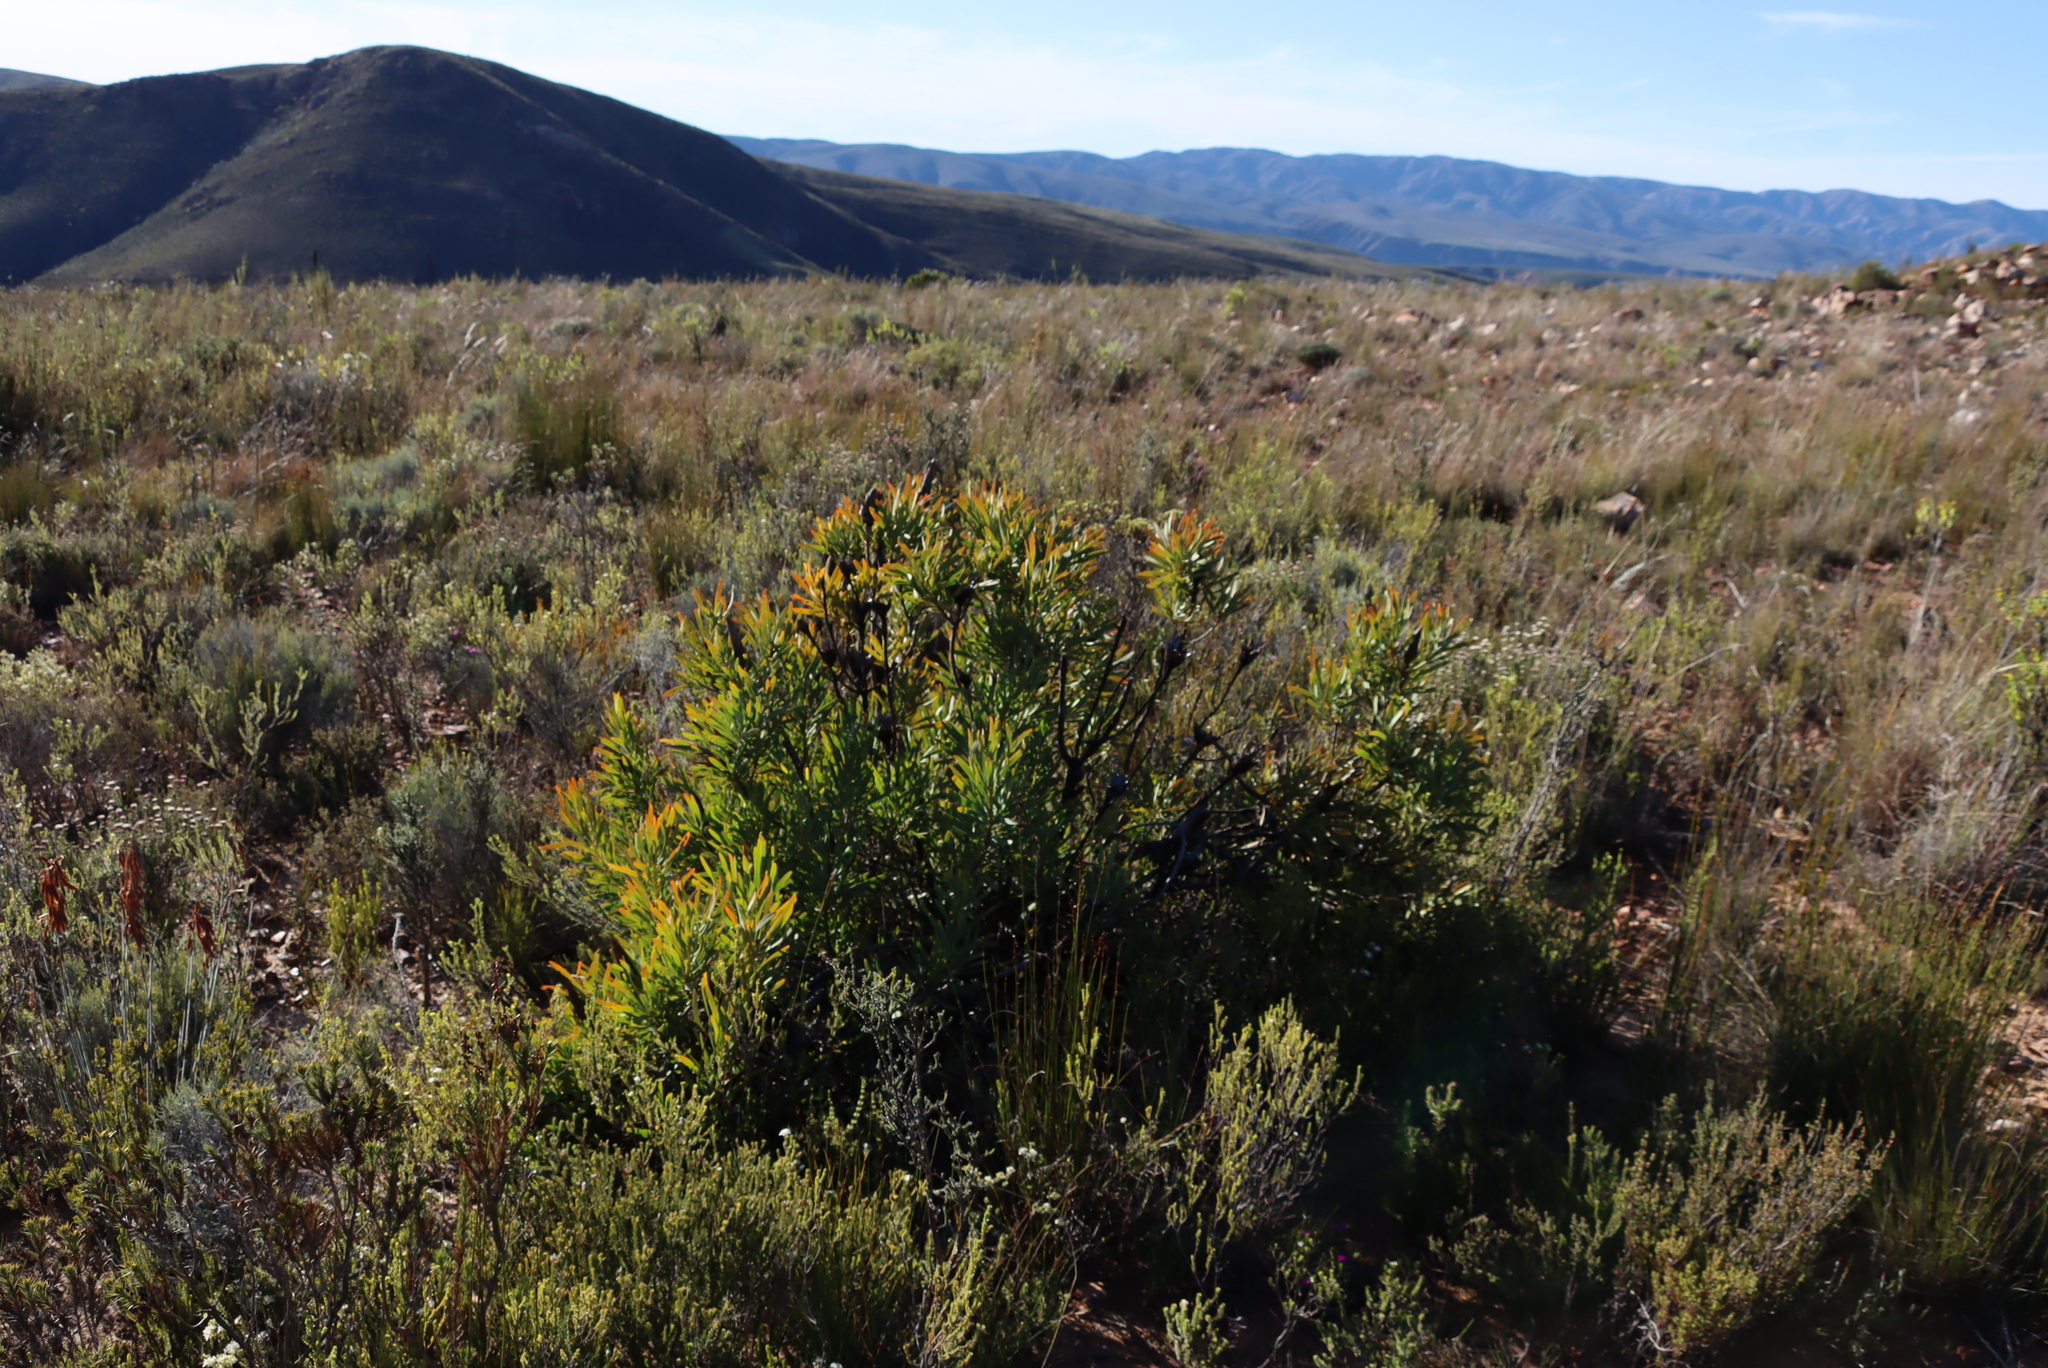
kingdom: Plantae
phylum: Tracheophyta
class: Magnoliopsida
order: Proteales
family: Proteaceae
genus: Protea
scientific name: Protea repens
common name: Sugarbush
